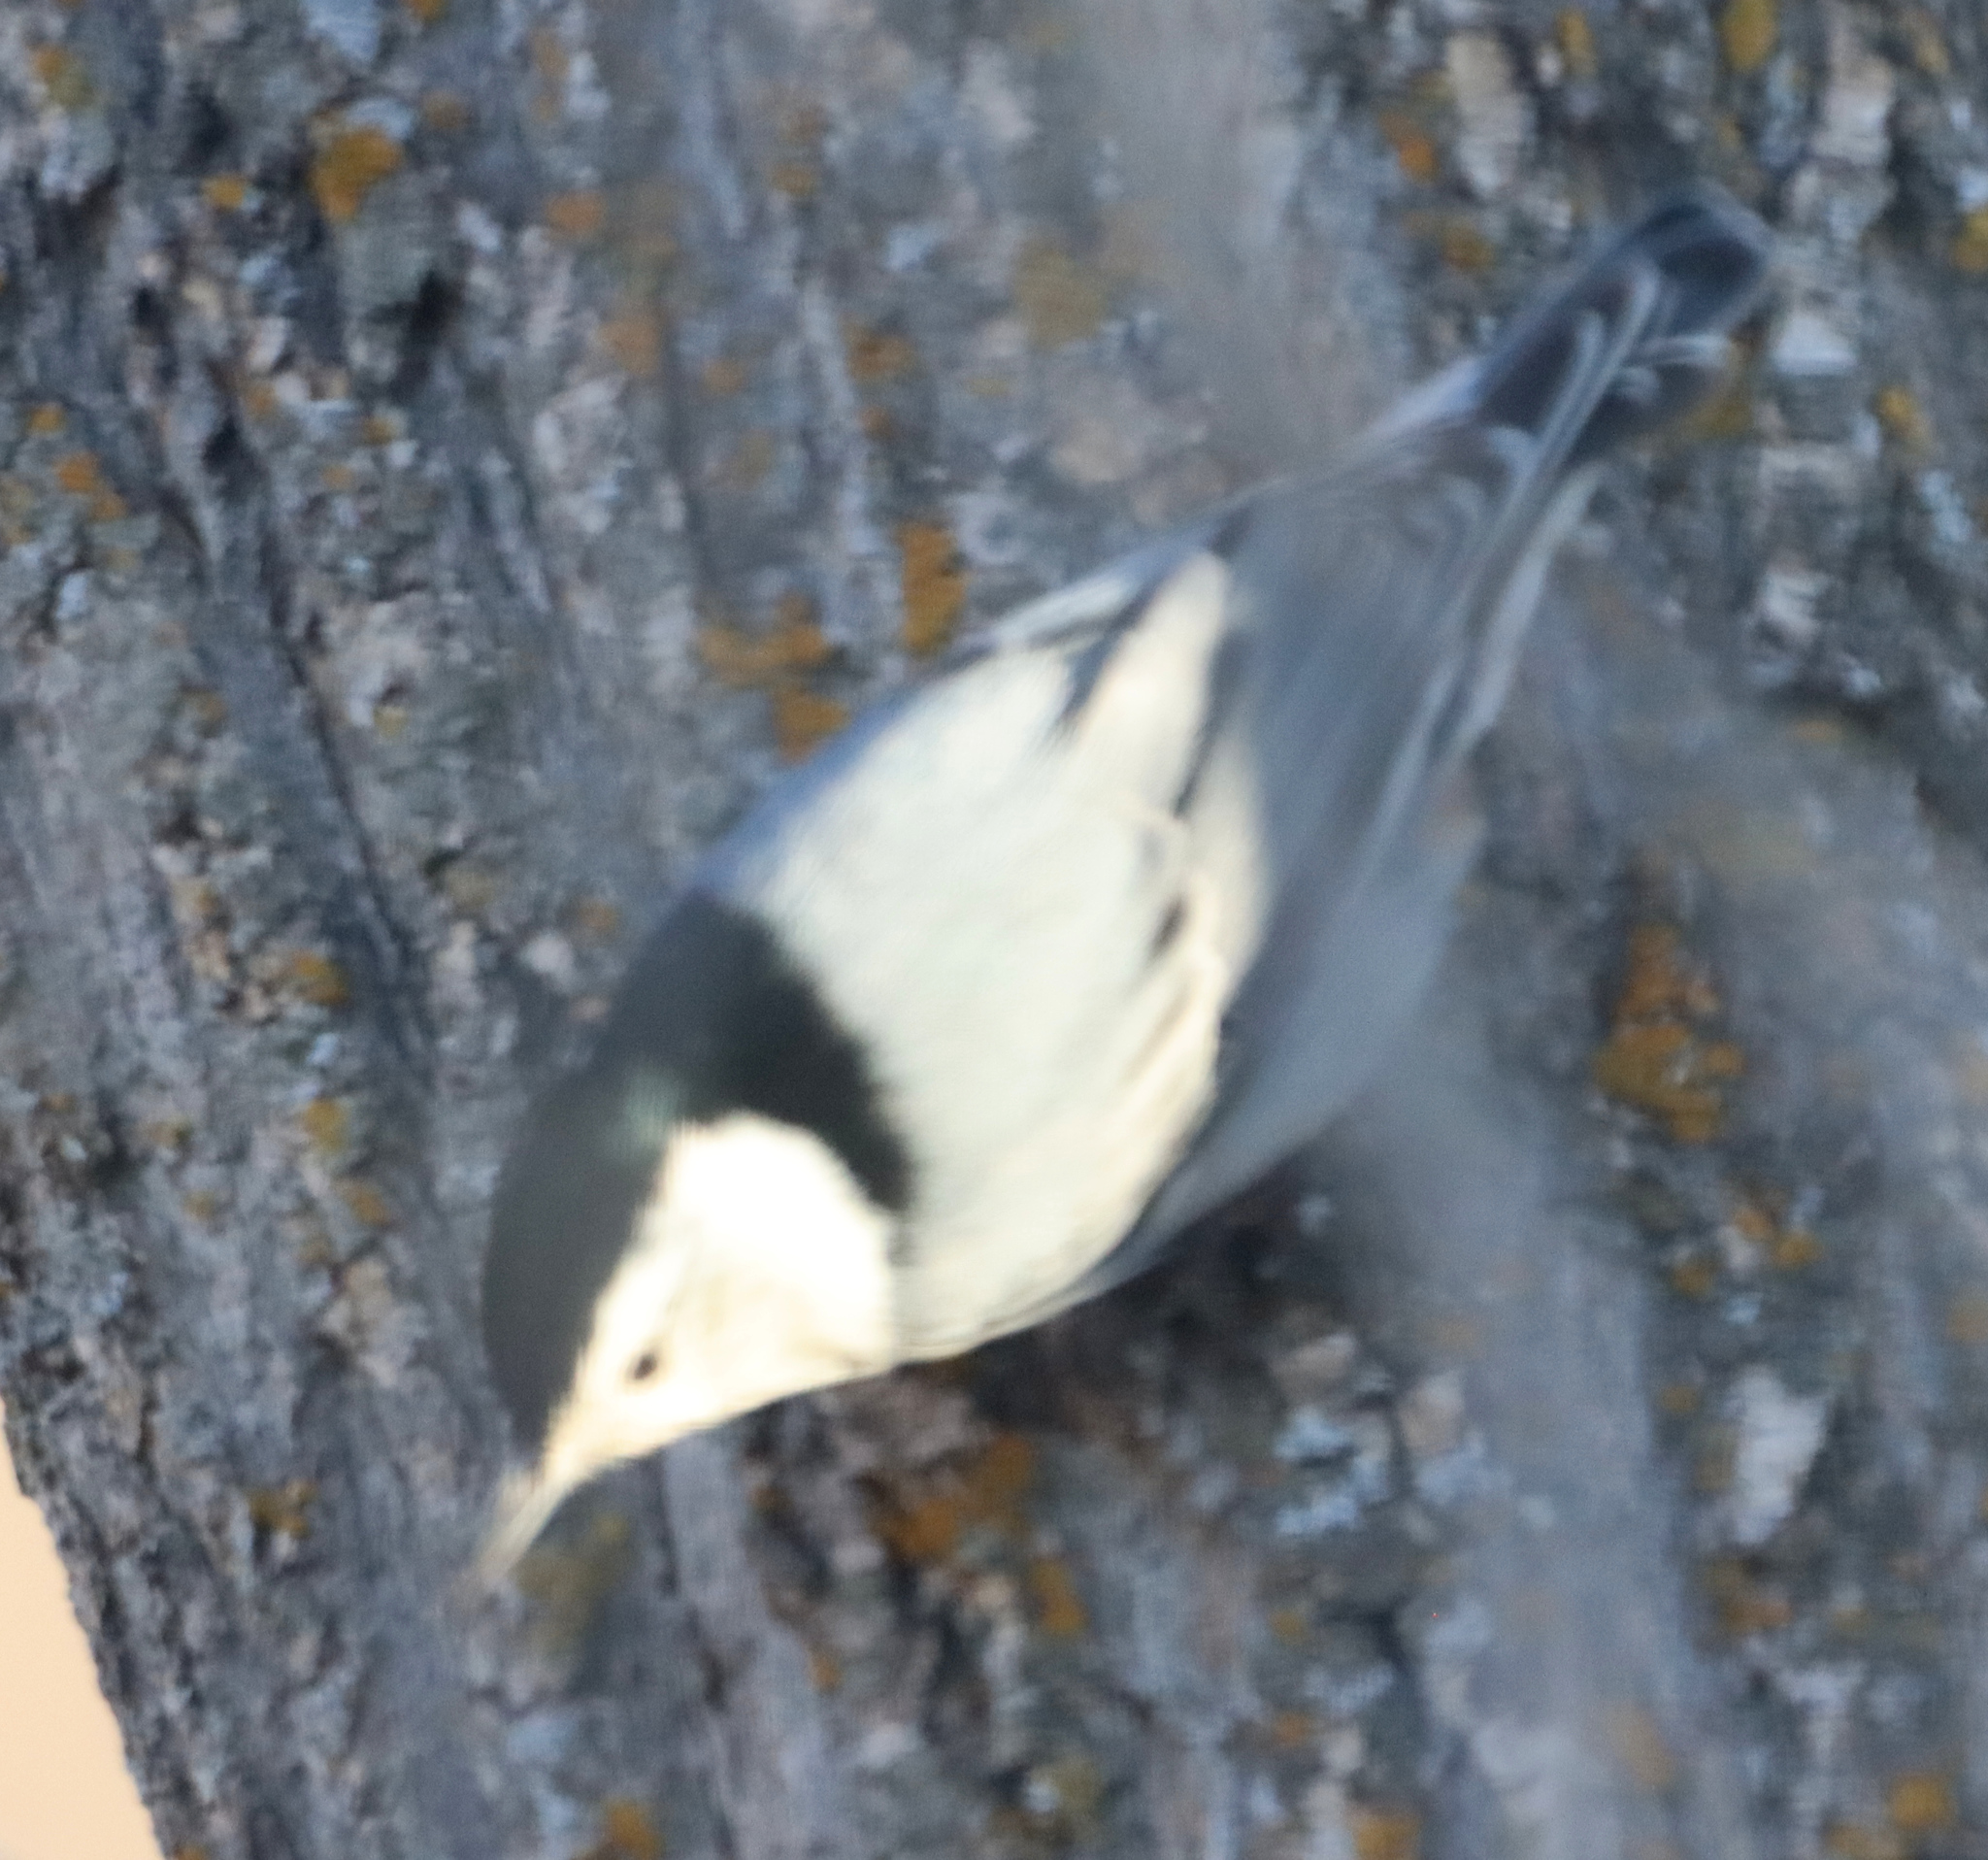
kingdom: Animalia
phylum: Chordata
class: Aves
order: Passeriformes
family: Sittidae
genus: Sitta
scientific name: Sitta carolinensis
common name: White-breasted nuthatch
